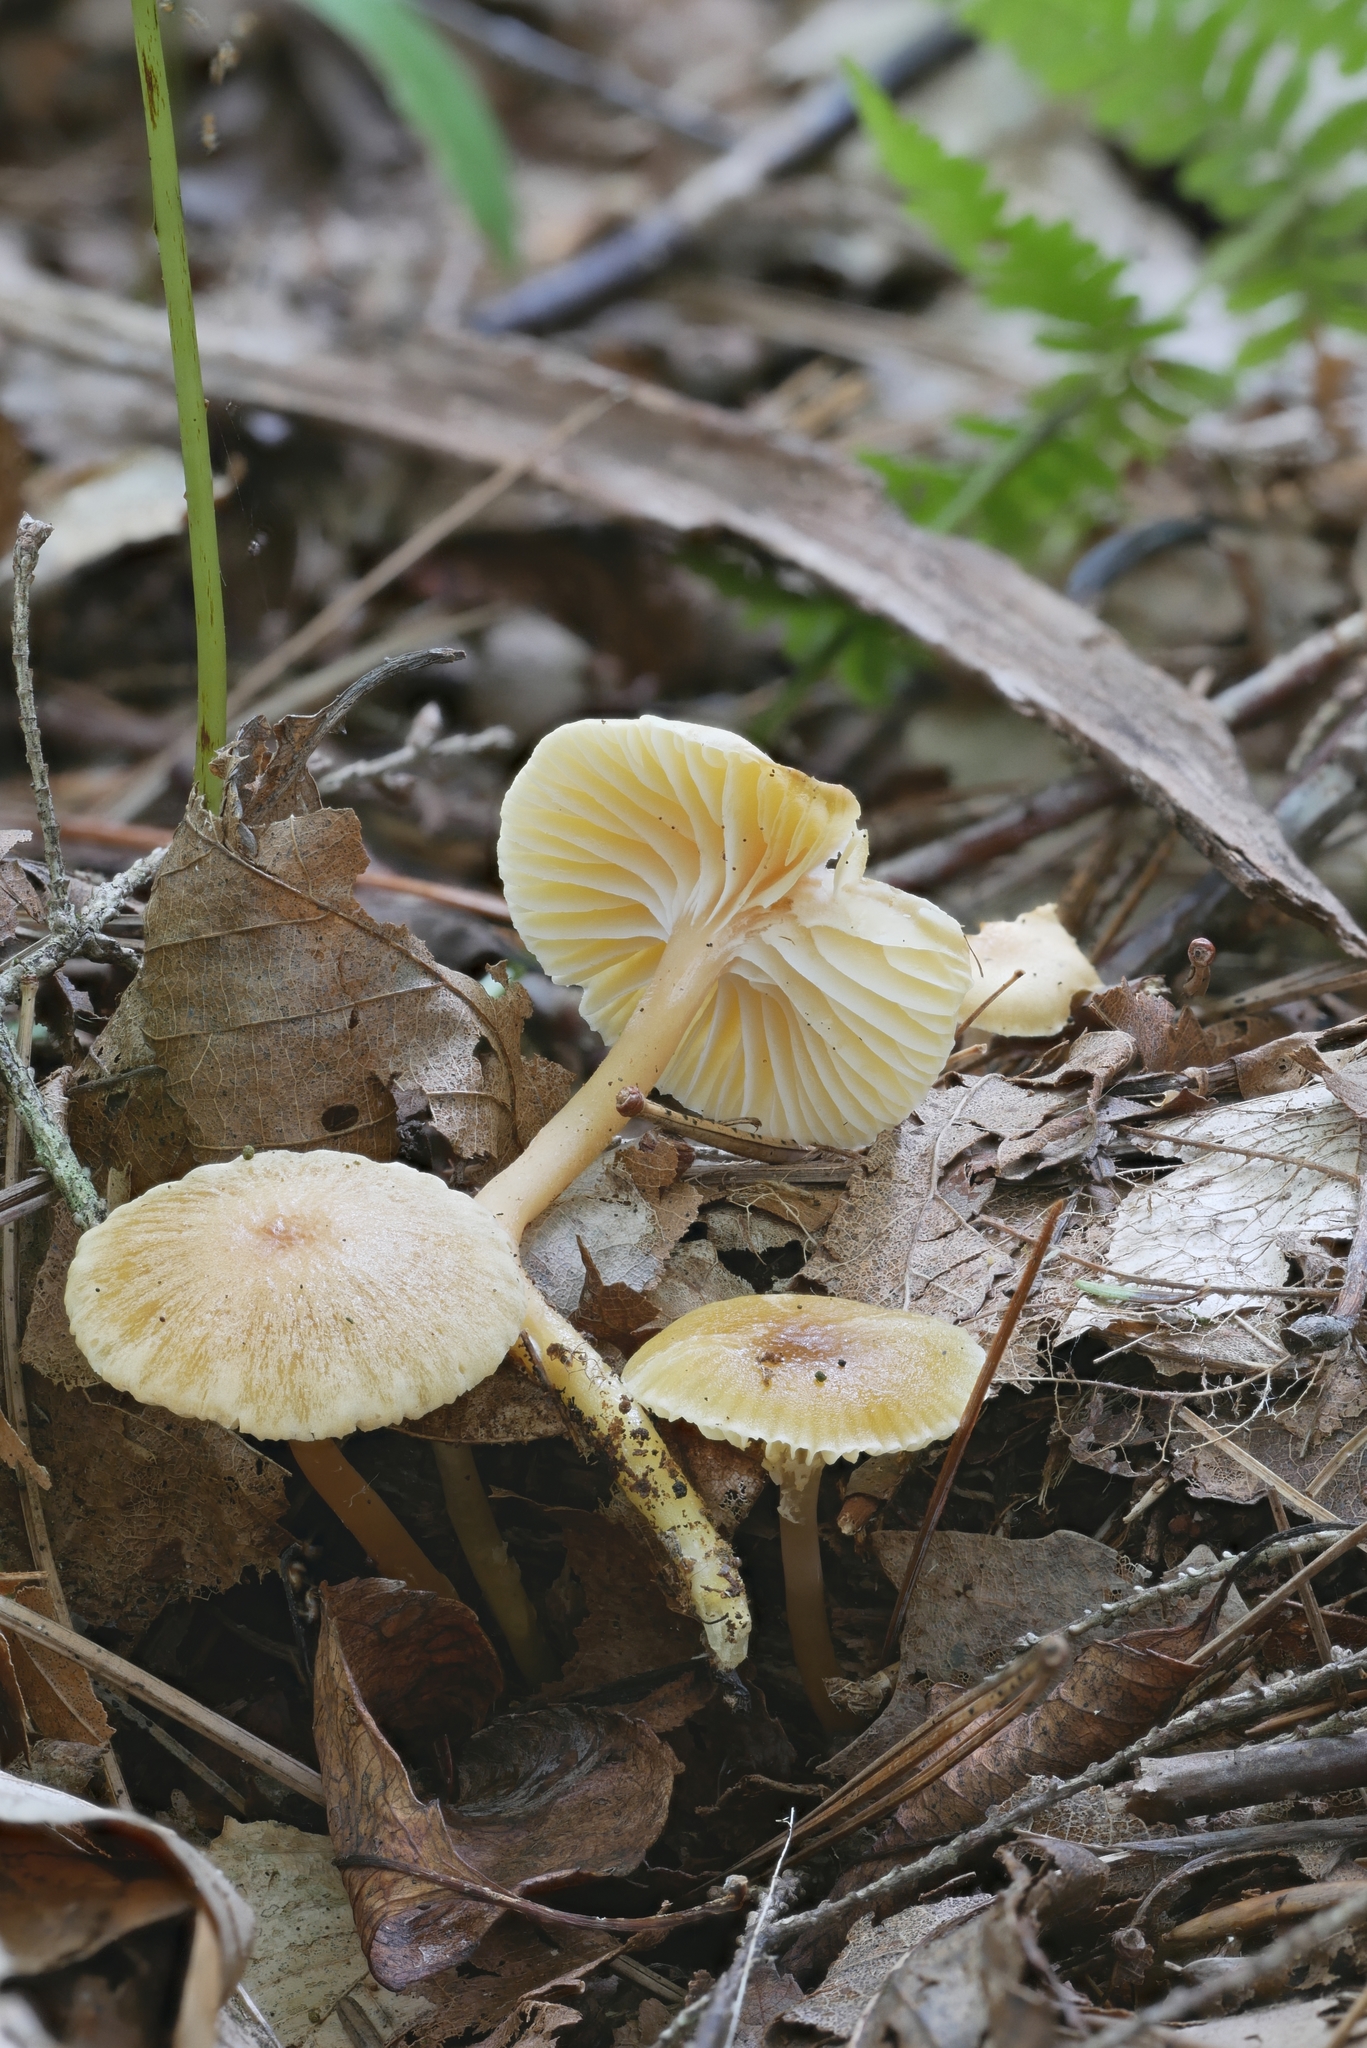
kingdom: Fungi
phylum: Basidiomycota
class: Agaricomycetes
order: Agaricales
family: Hygrophoraceae
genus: Humidicutis
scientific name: Humidicutis auratocephala
